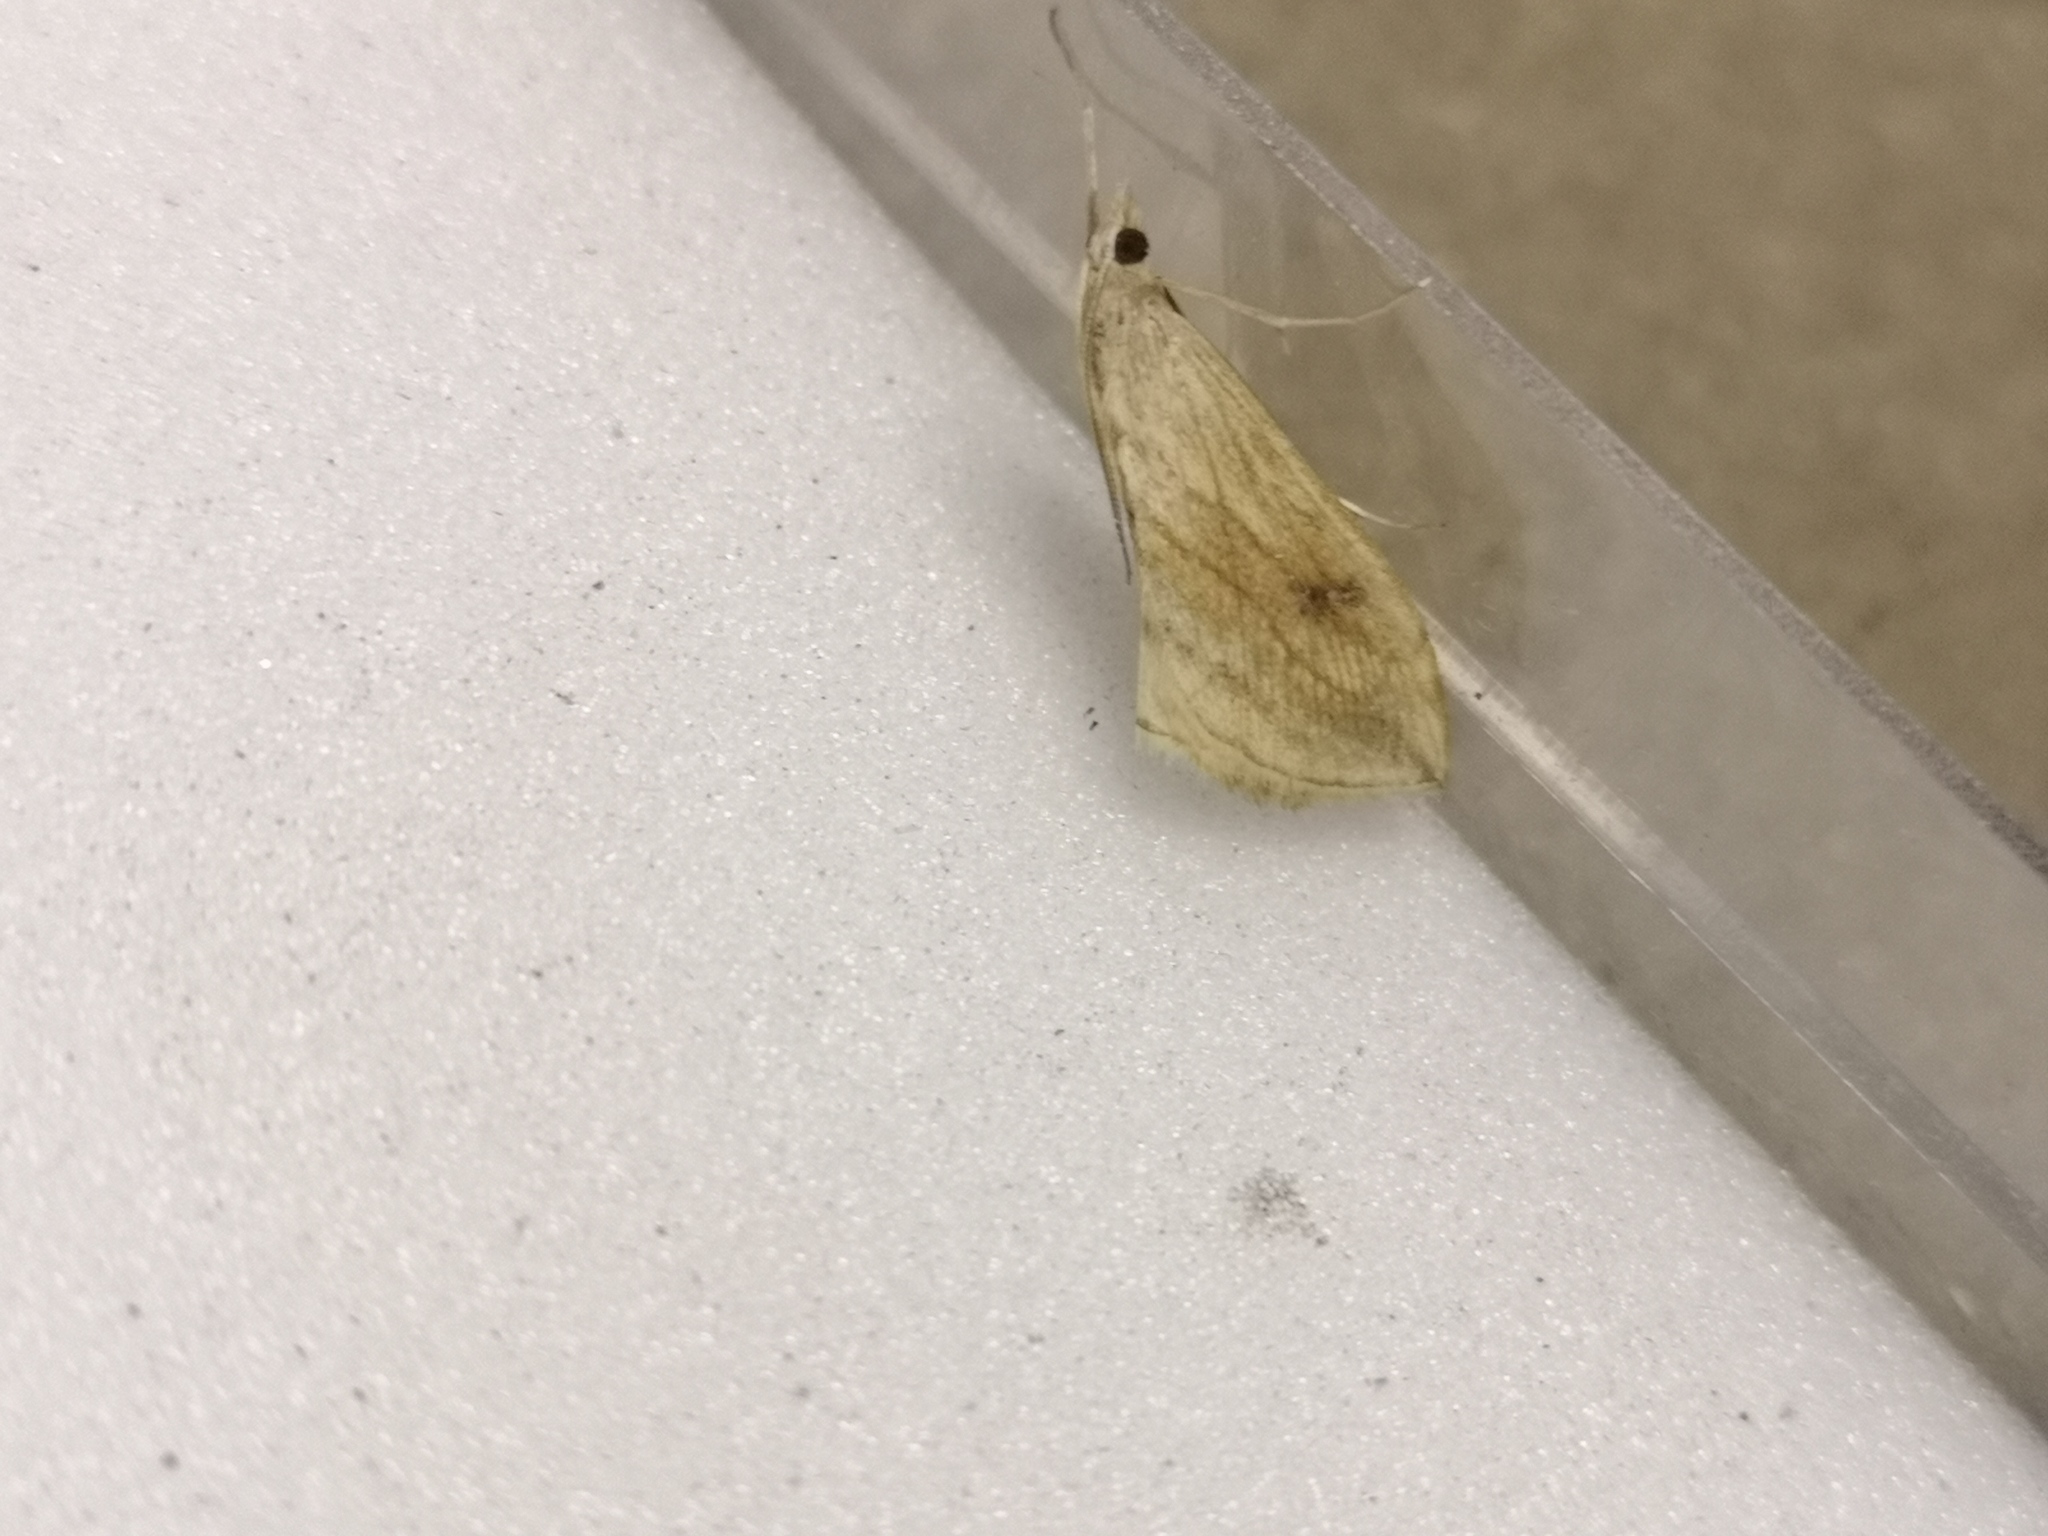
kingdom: Animalia
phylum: Arthropoda
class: Insecta
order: Lepidoptera
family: Crambidae
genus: Evergestis
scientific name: Evergestis forficalis
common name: Garden pebble
